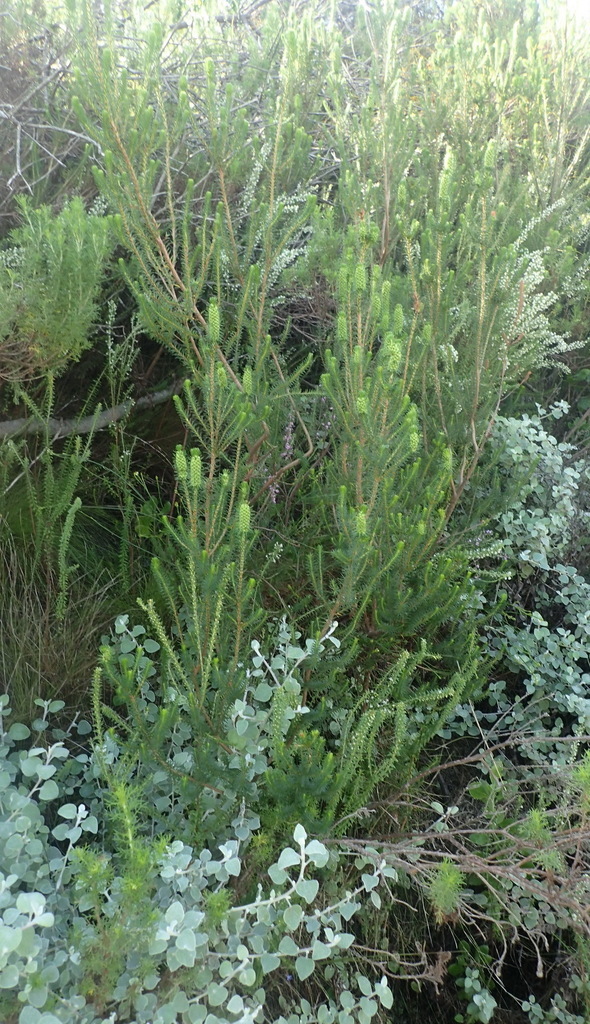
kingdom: Plantae
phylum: Tracheophyta
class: Magnoliopsida
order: Ericales
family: Ericaceae
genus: Erica
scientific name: Erica sessiliflora
